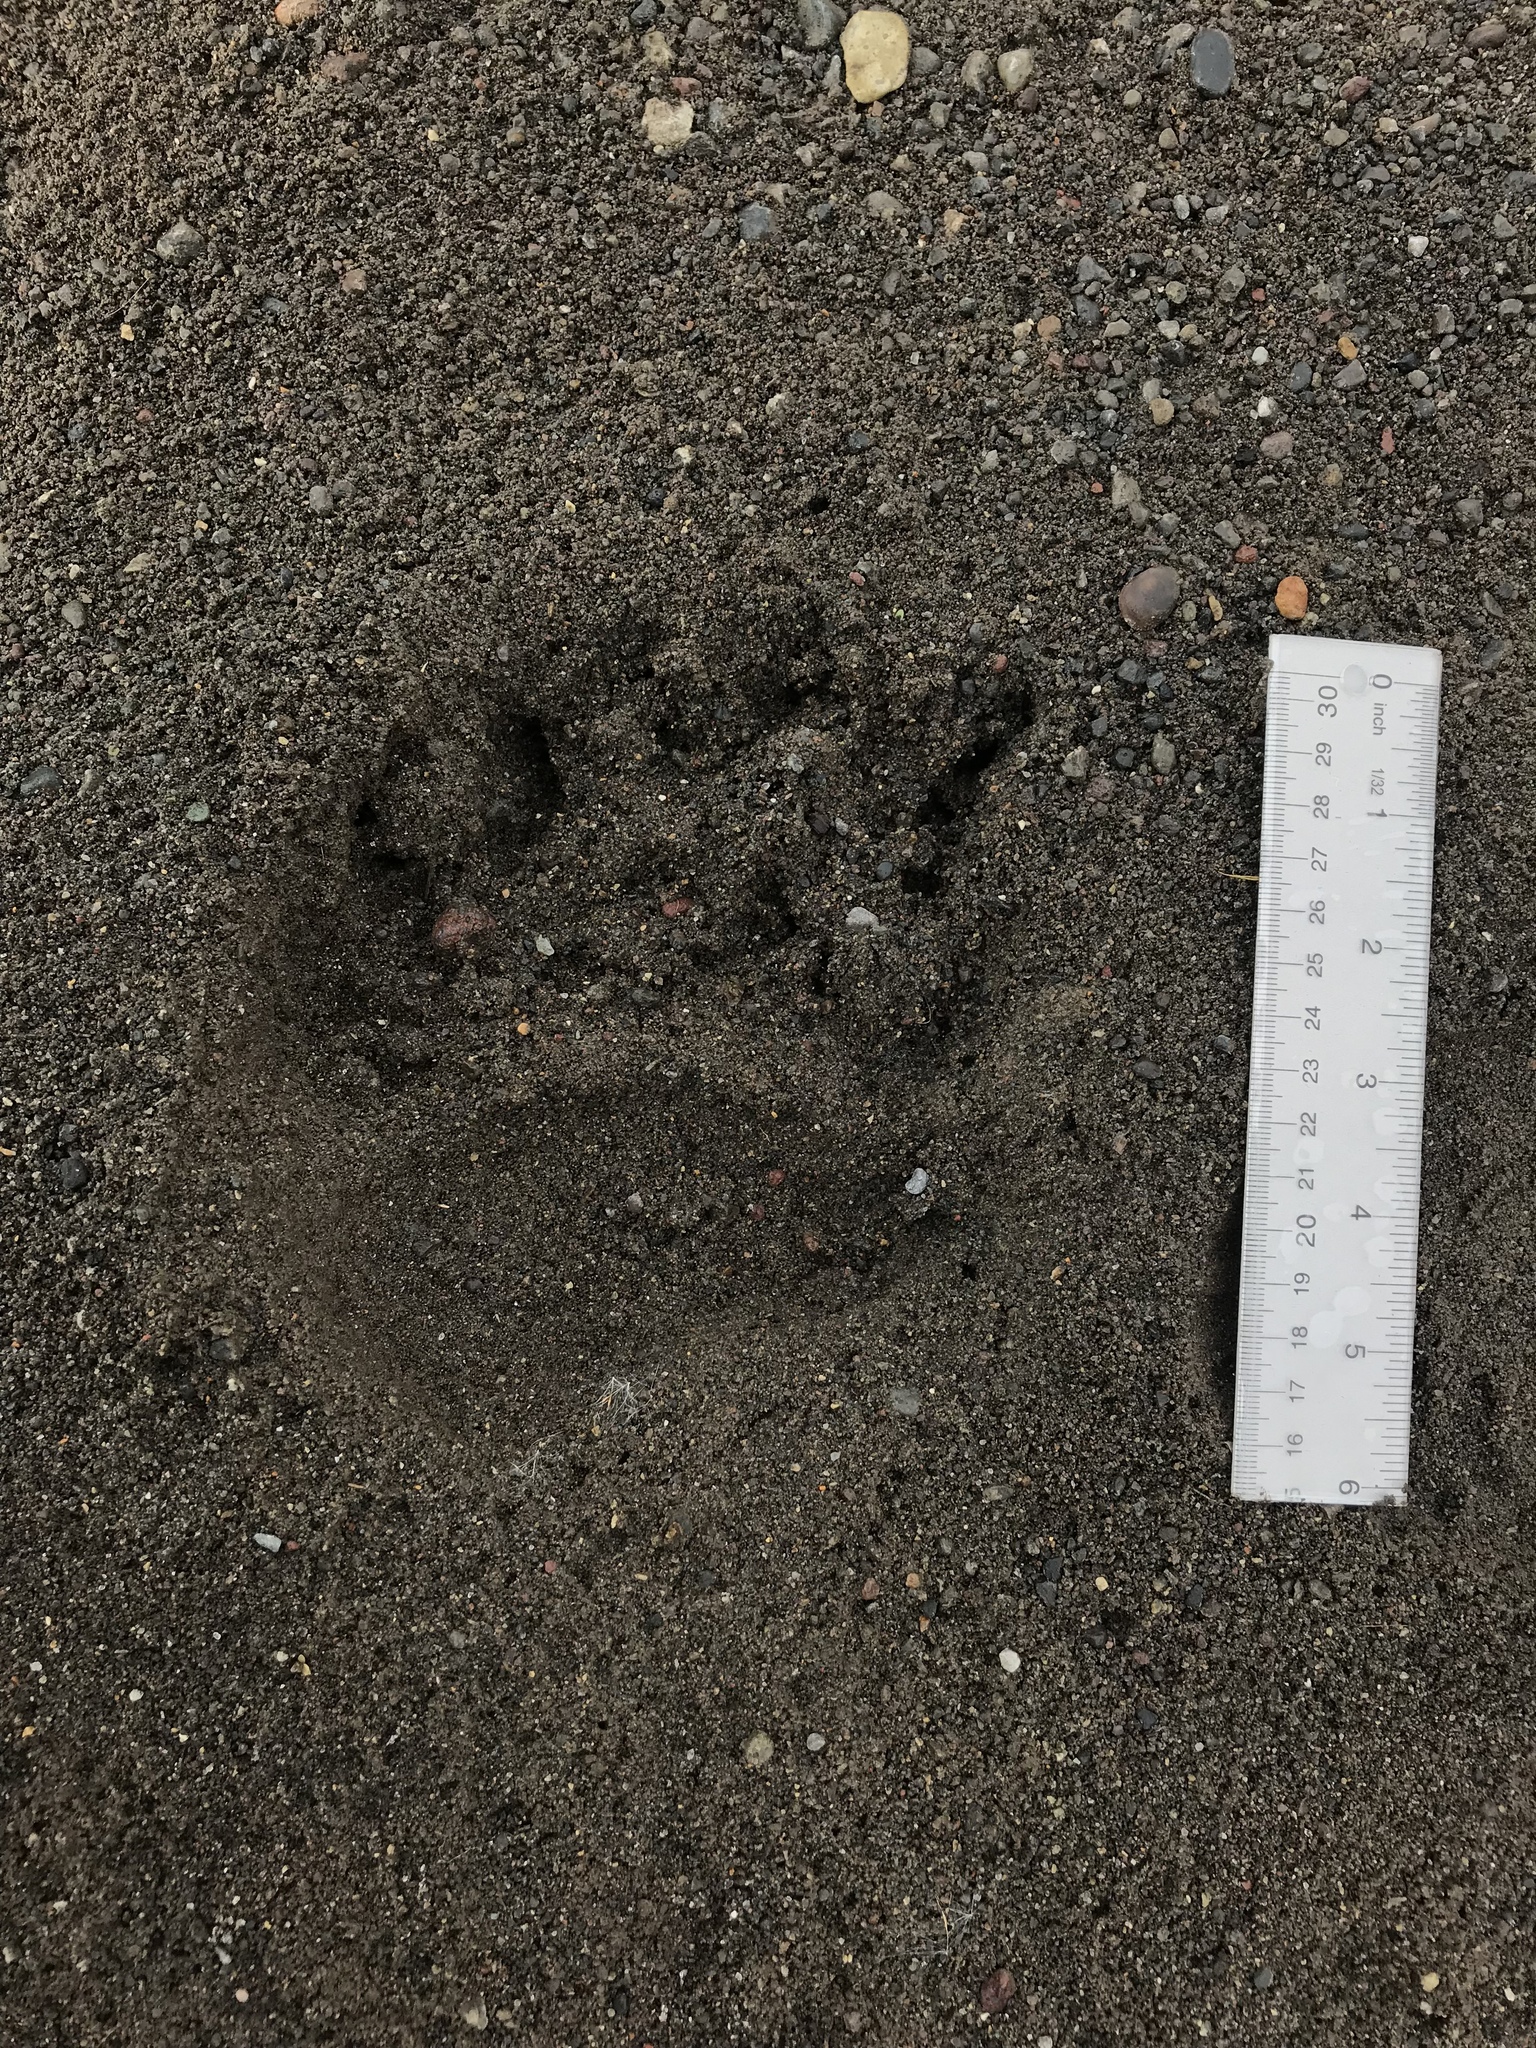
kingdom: Animalia
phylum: Chordata
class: Mammalia
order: Carnivora
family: Ursidae
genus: Ursus
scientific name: Ursus americanus
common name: American black bear
